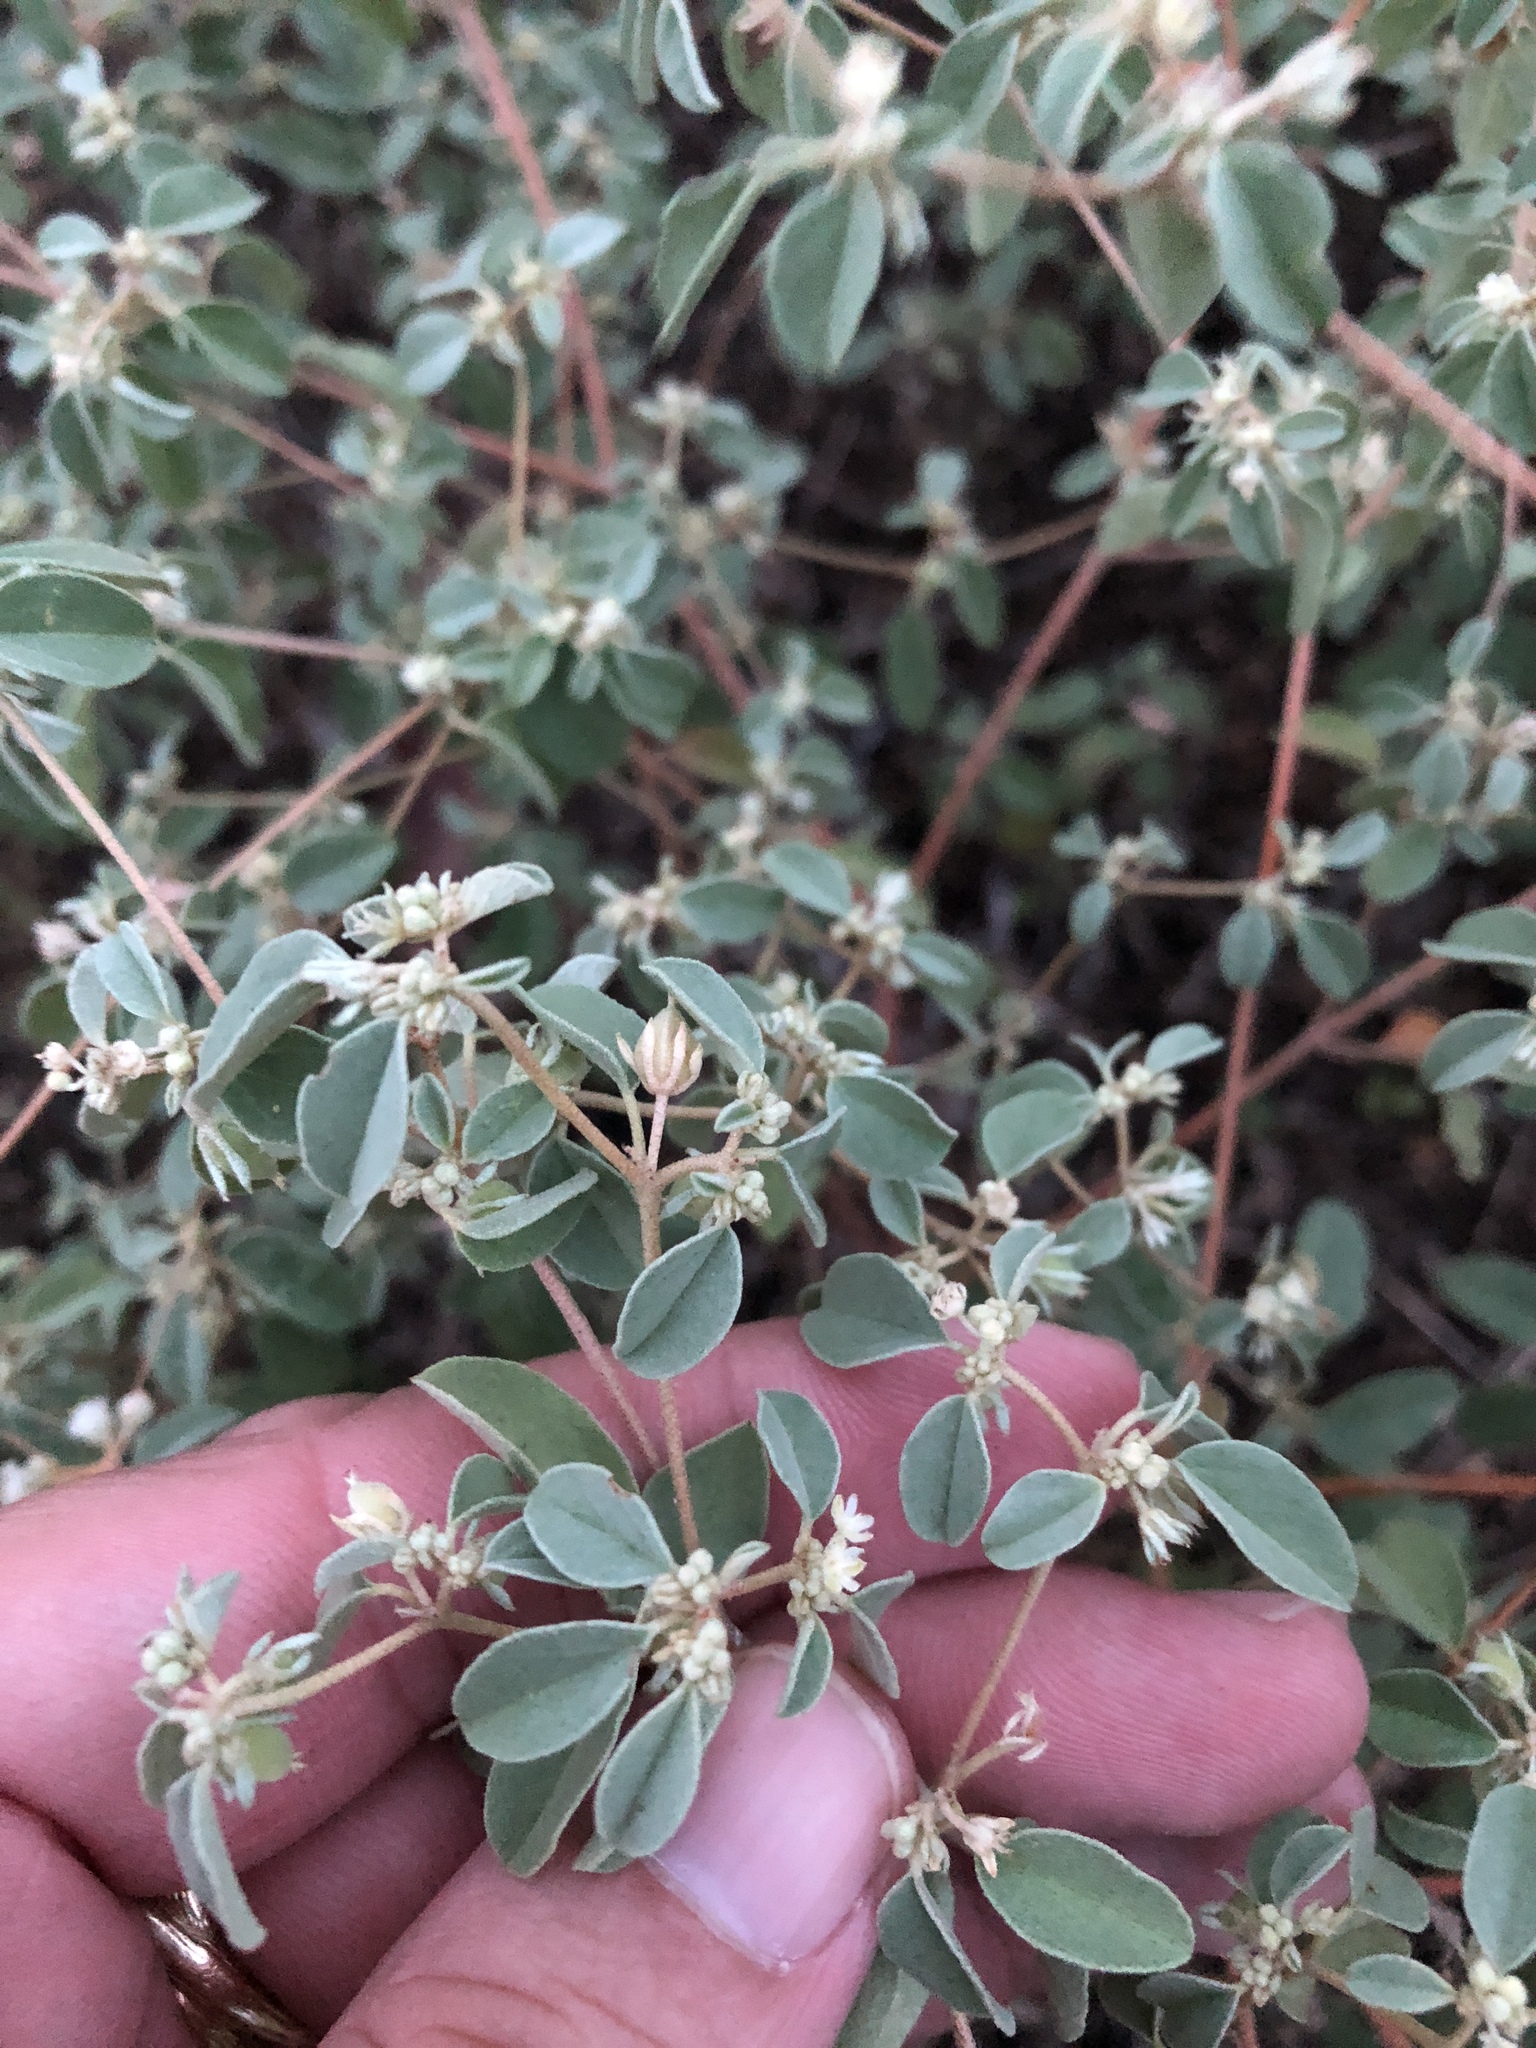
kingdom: Plantae
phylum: Tracheophyta
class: Magnoliopsida
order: Malpighiales
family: Euphorbiaceae
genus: Croton
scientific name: Croton monanthogynus
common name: One-seed croton
